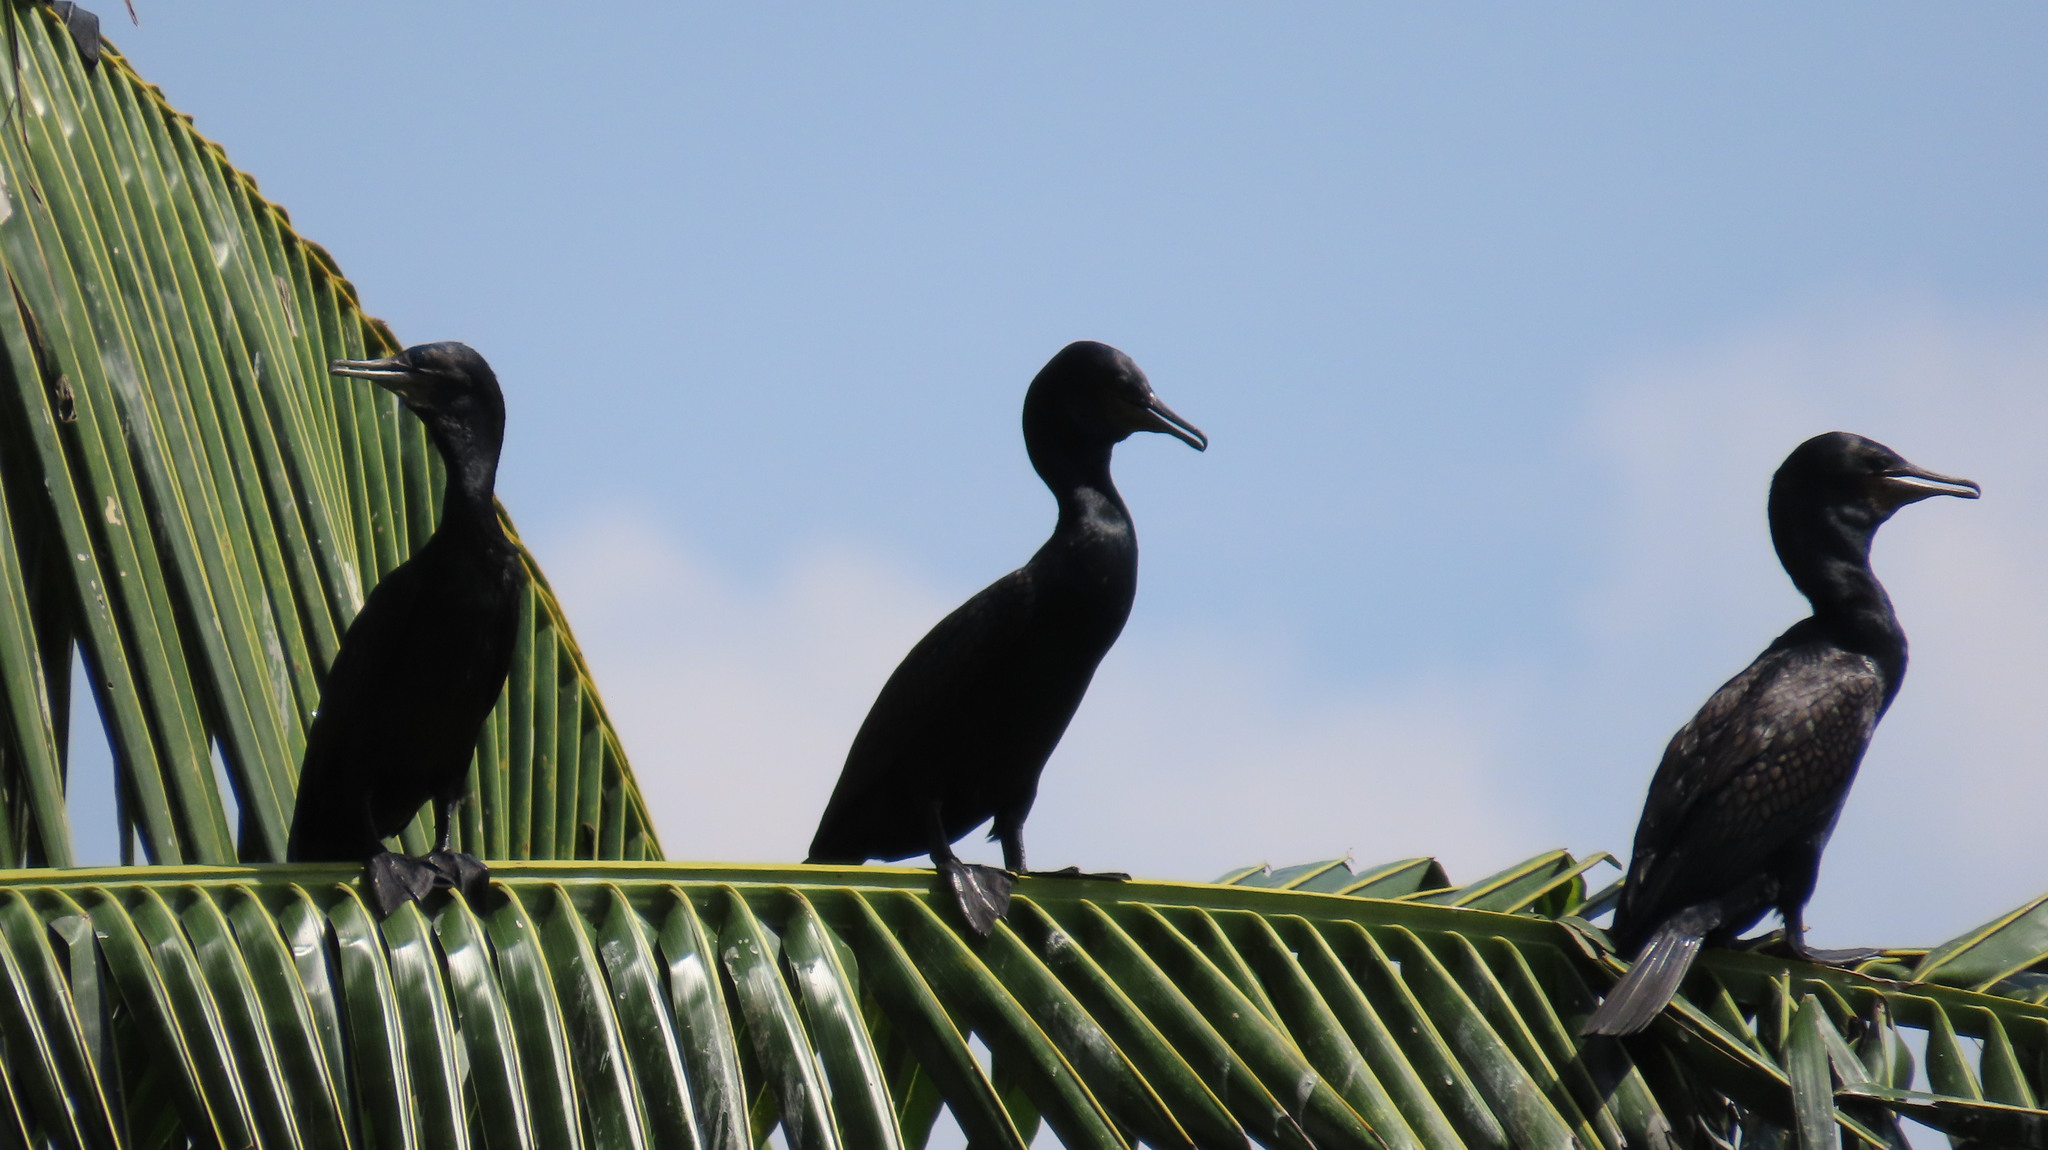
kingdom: Animalia
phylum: Chordata
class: Aves
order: Suliformes
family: Phalacrocoracidae
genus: Phalacrocorax
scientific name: Phalacrocorax fuscicollis
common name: Indian cormorant
